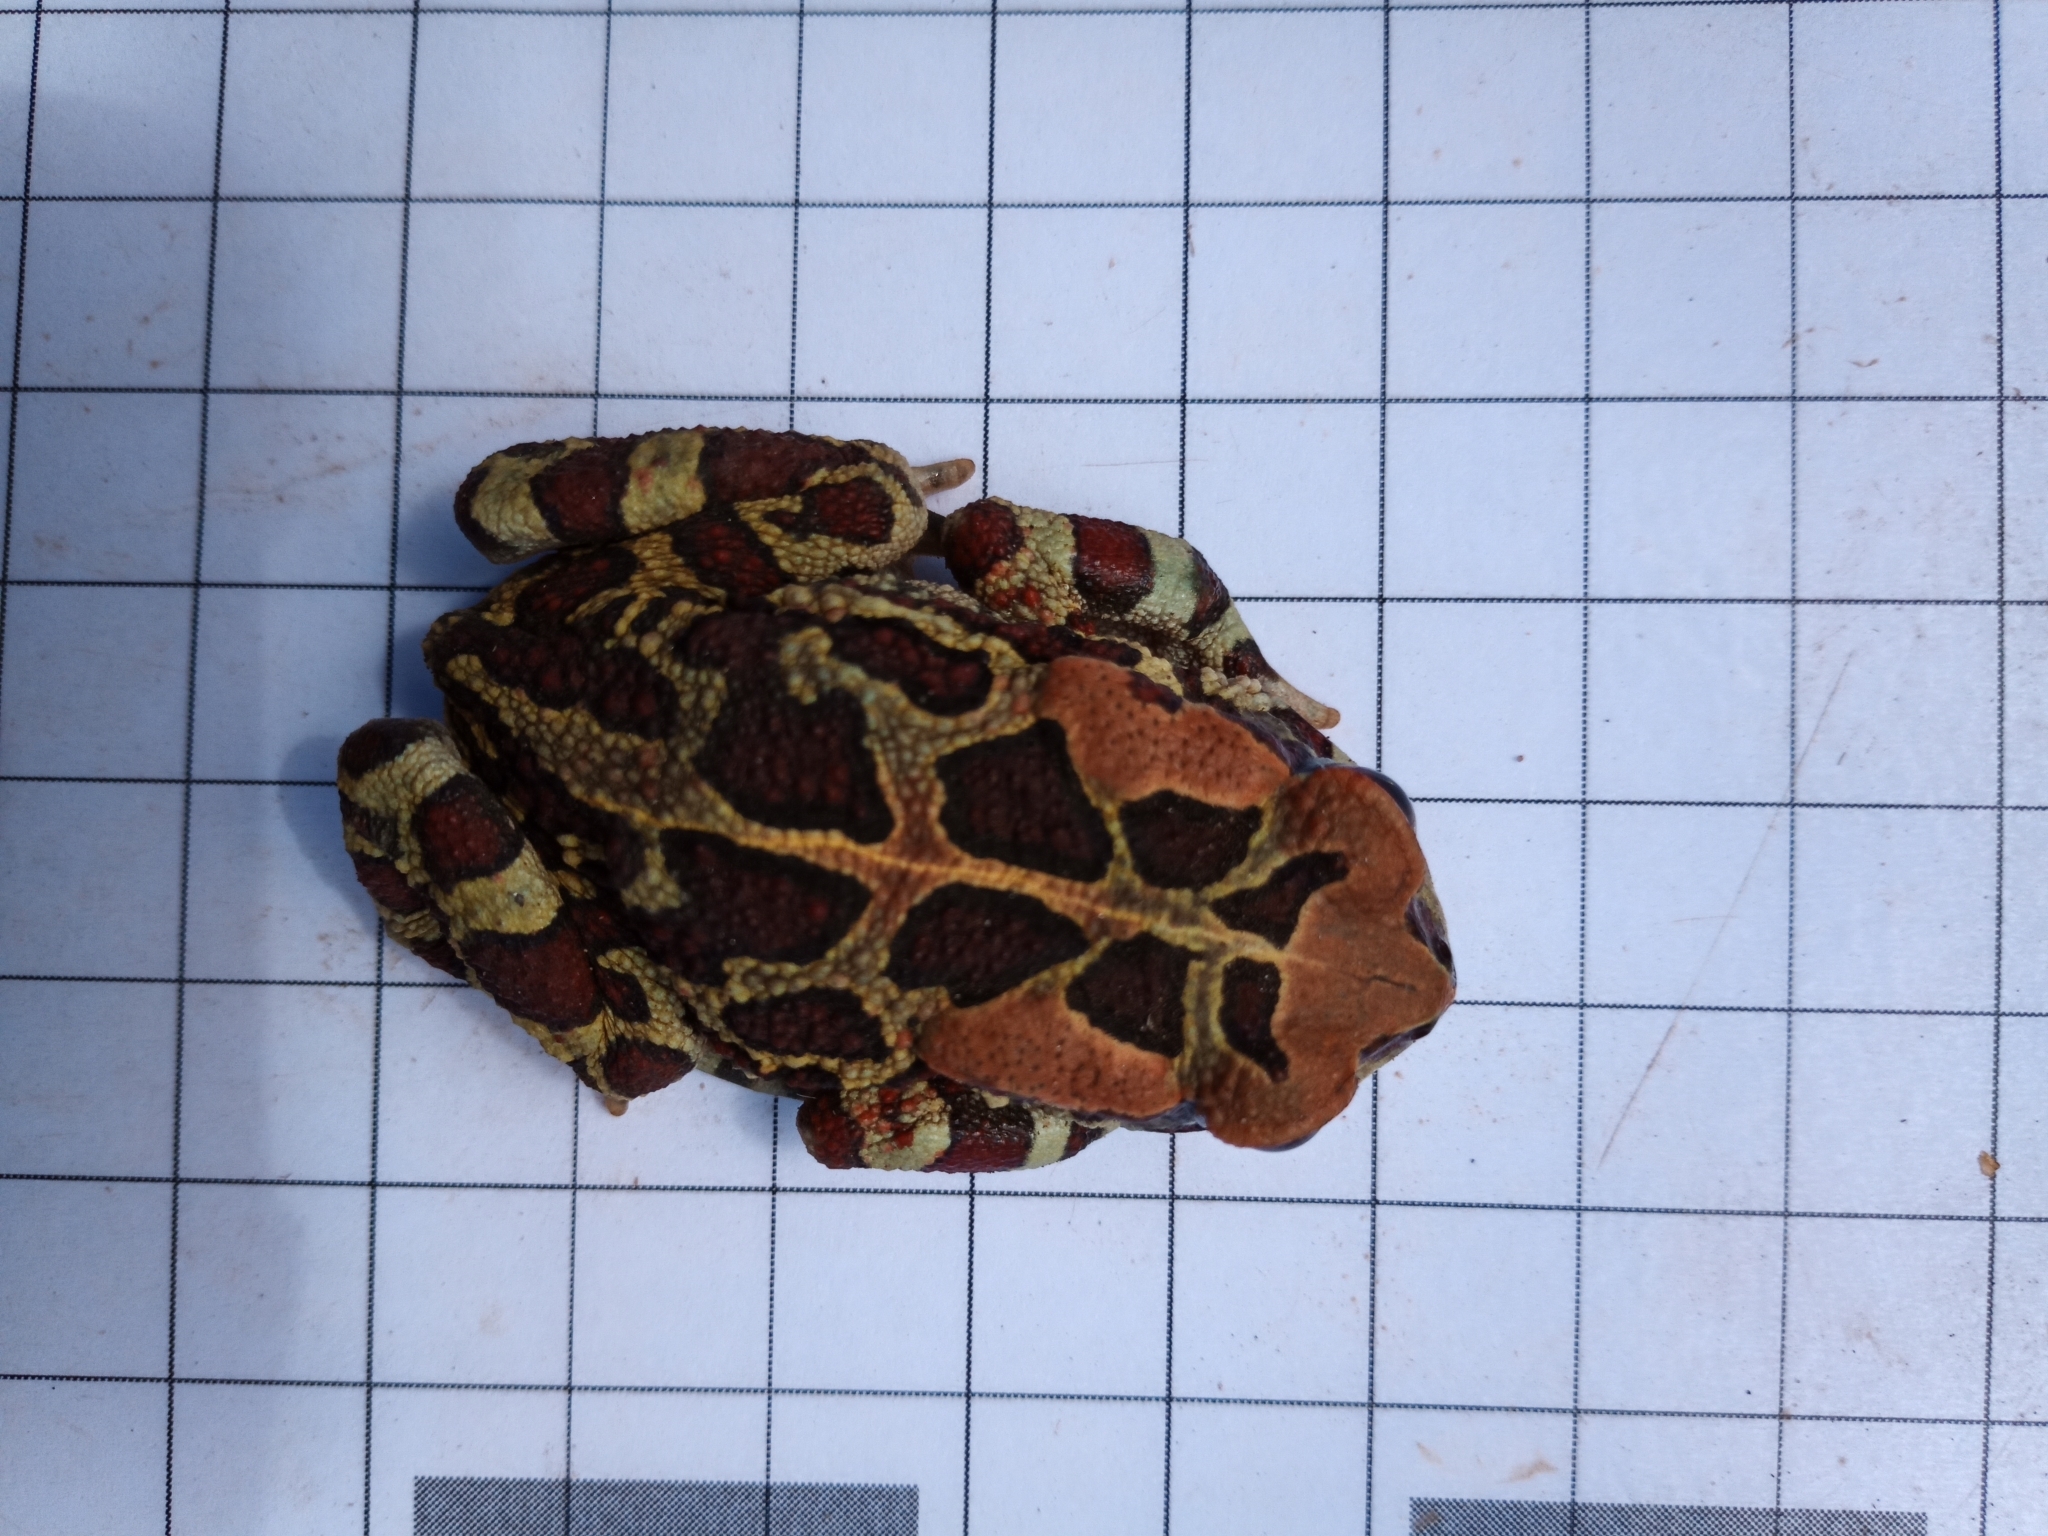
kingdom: Animalia
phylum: Chordata
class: Amphibia
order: Anura
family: Bufonidae
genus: Sclerophrys
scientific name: Sclerophrys pantherina
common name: Panther toad
